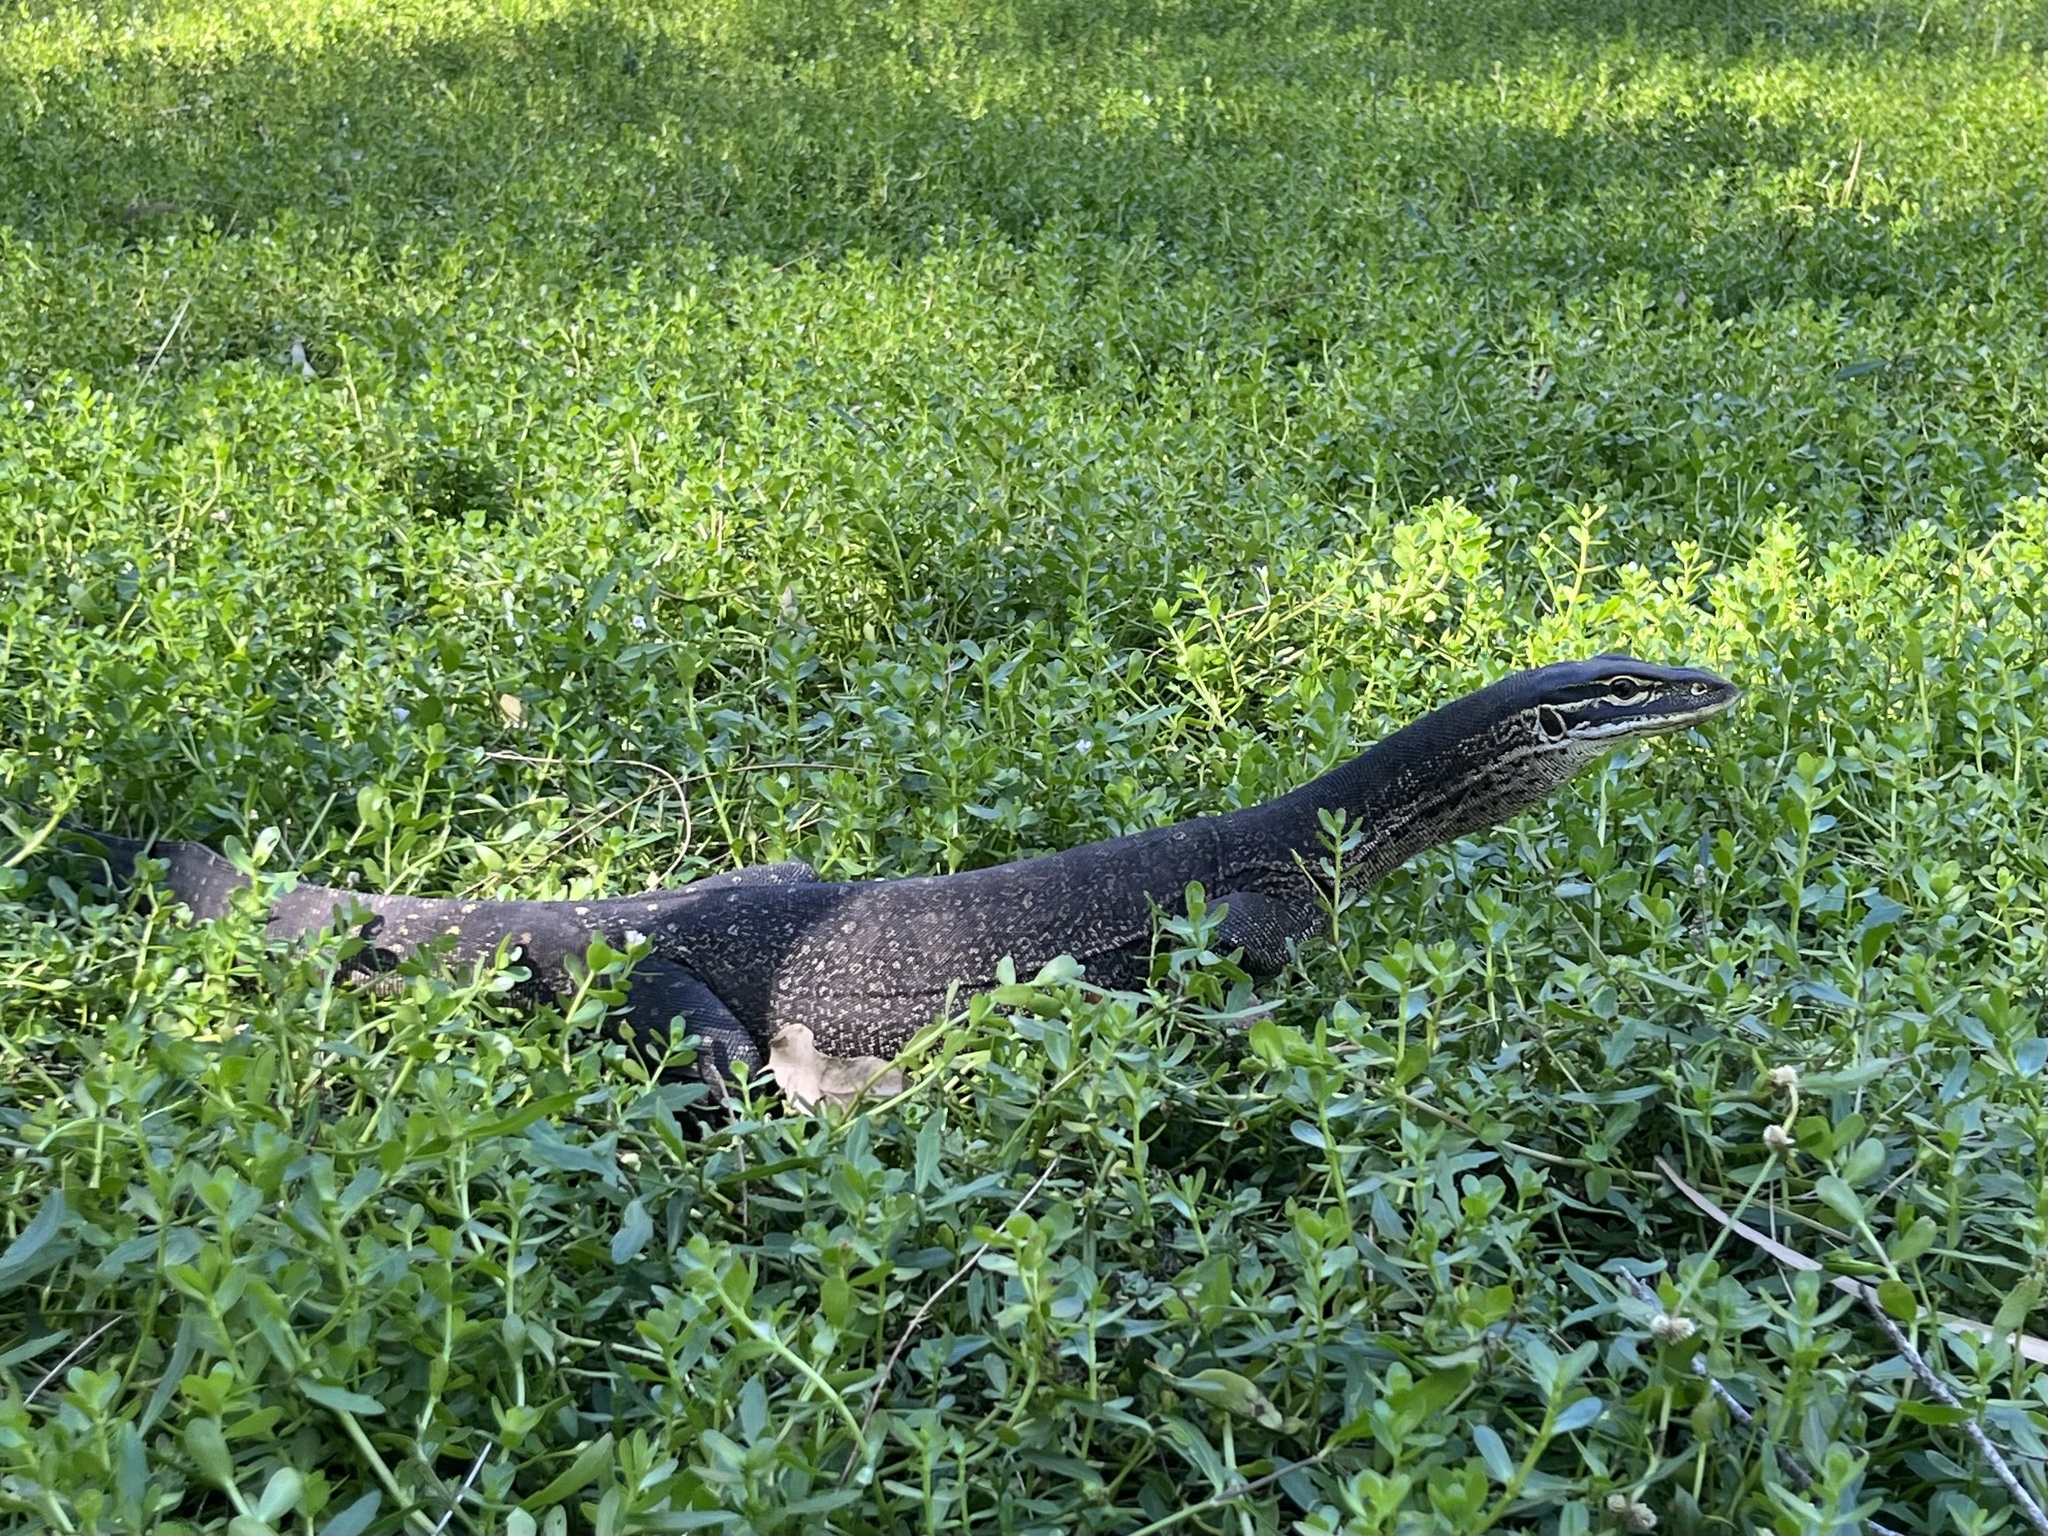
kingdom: Animalia
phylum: Chordata
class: Squamata
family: Varanidae
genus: Varanus
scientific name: Varanus panoptes
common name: Yellow-spotted monitor
